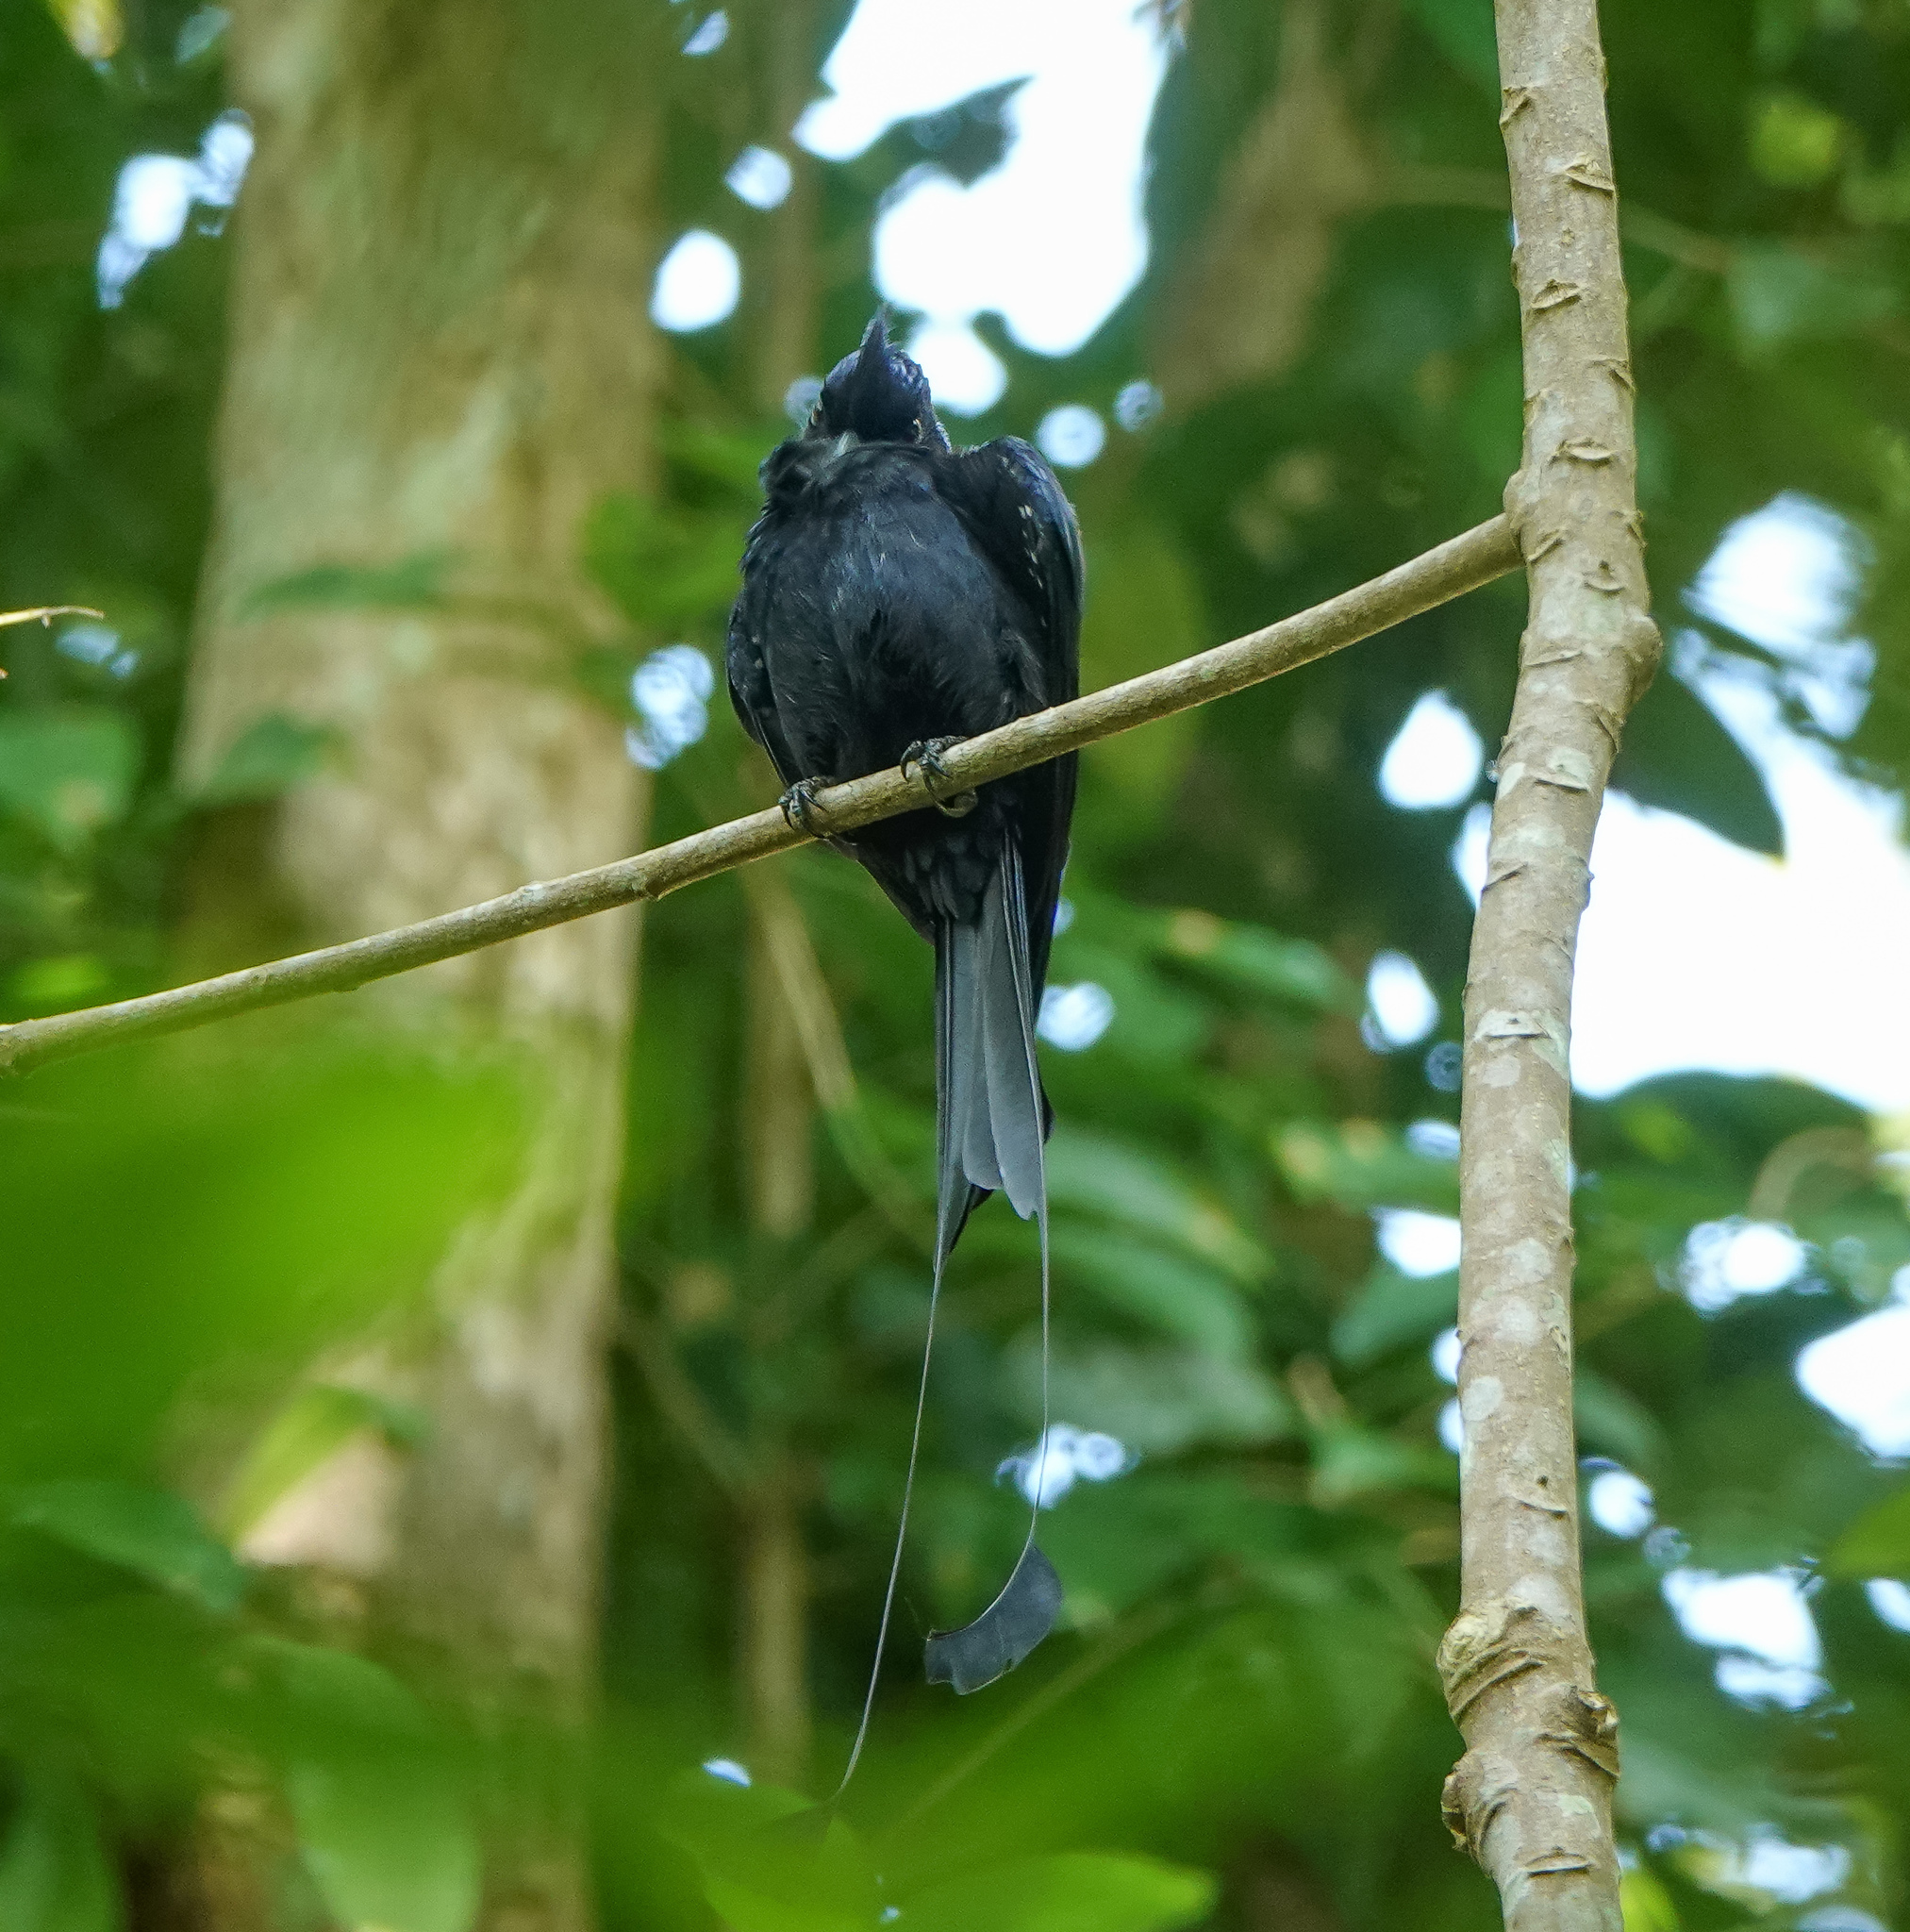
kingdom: Animalia
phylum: Chordata
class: Aves
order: Passeriformes
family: Dicruridae
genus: Dicrurus
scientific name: Dicrurus remifer
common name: Lesser racket-tailed drongo
